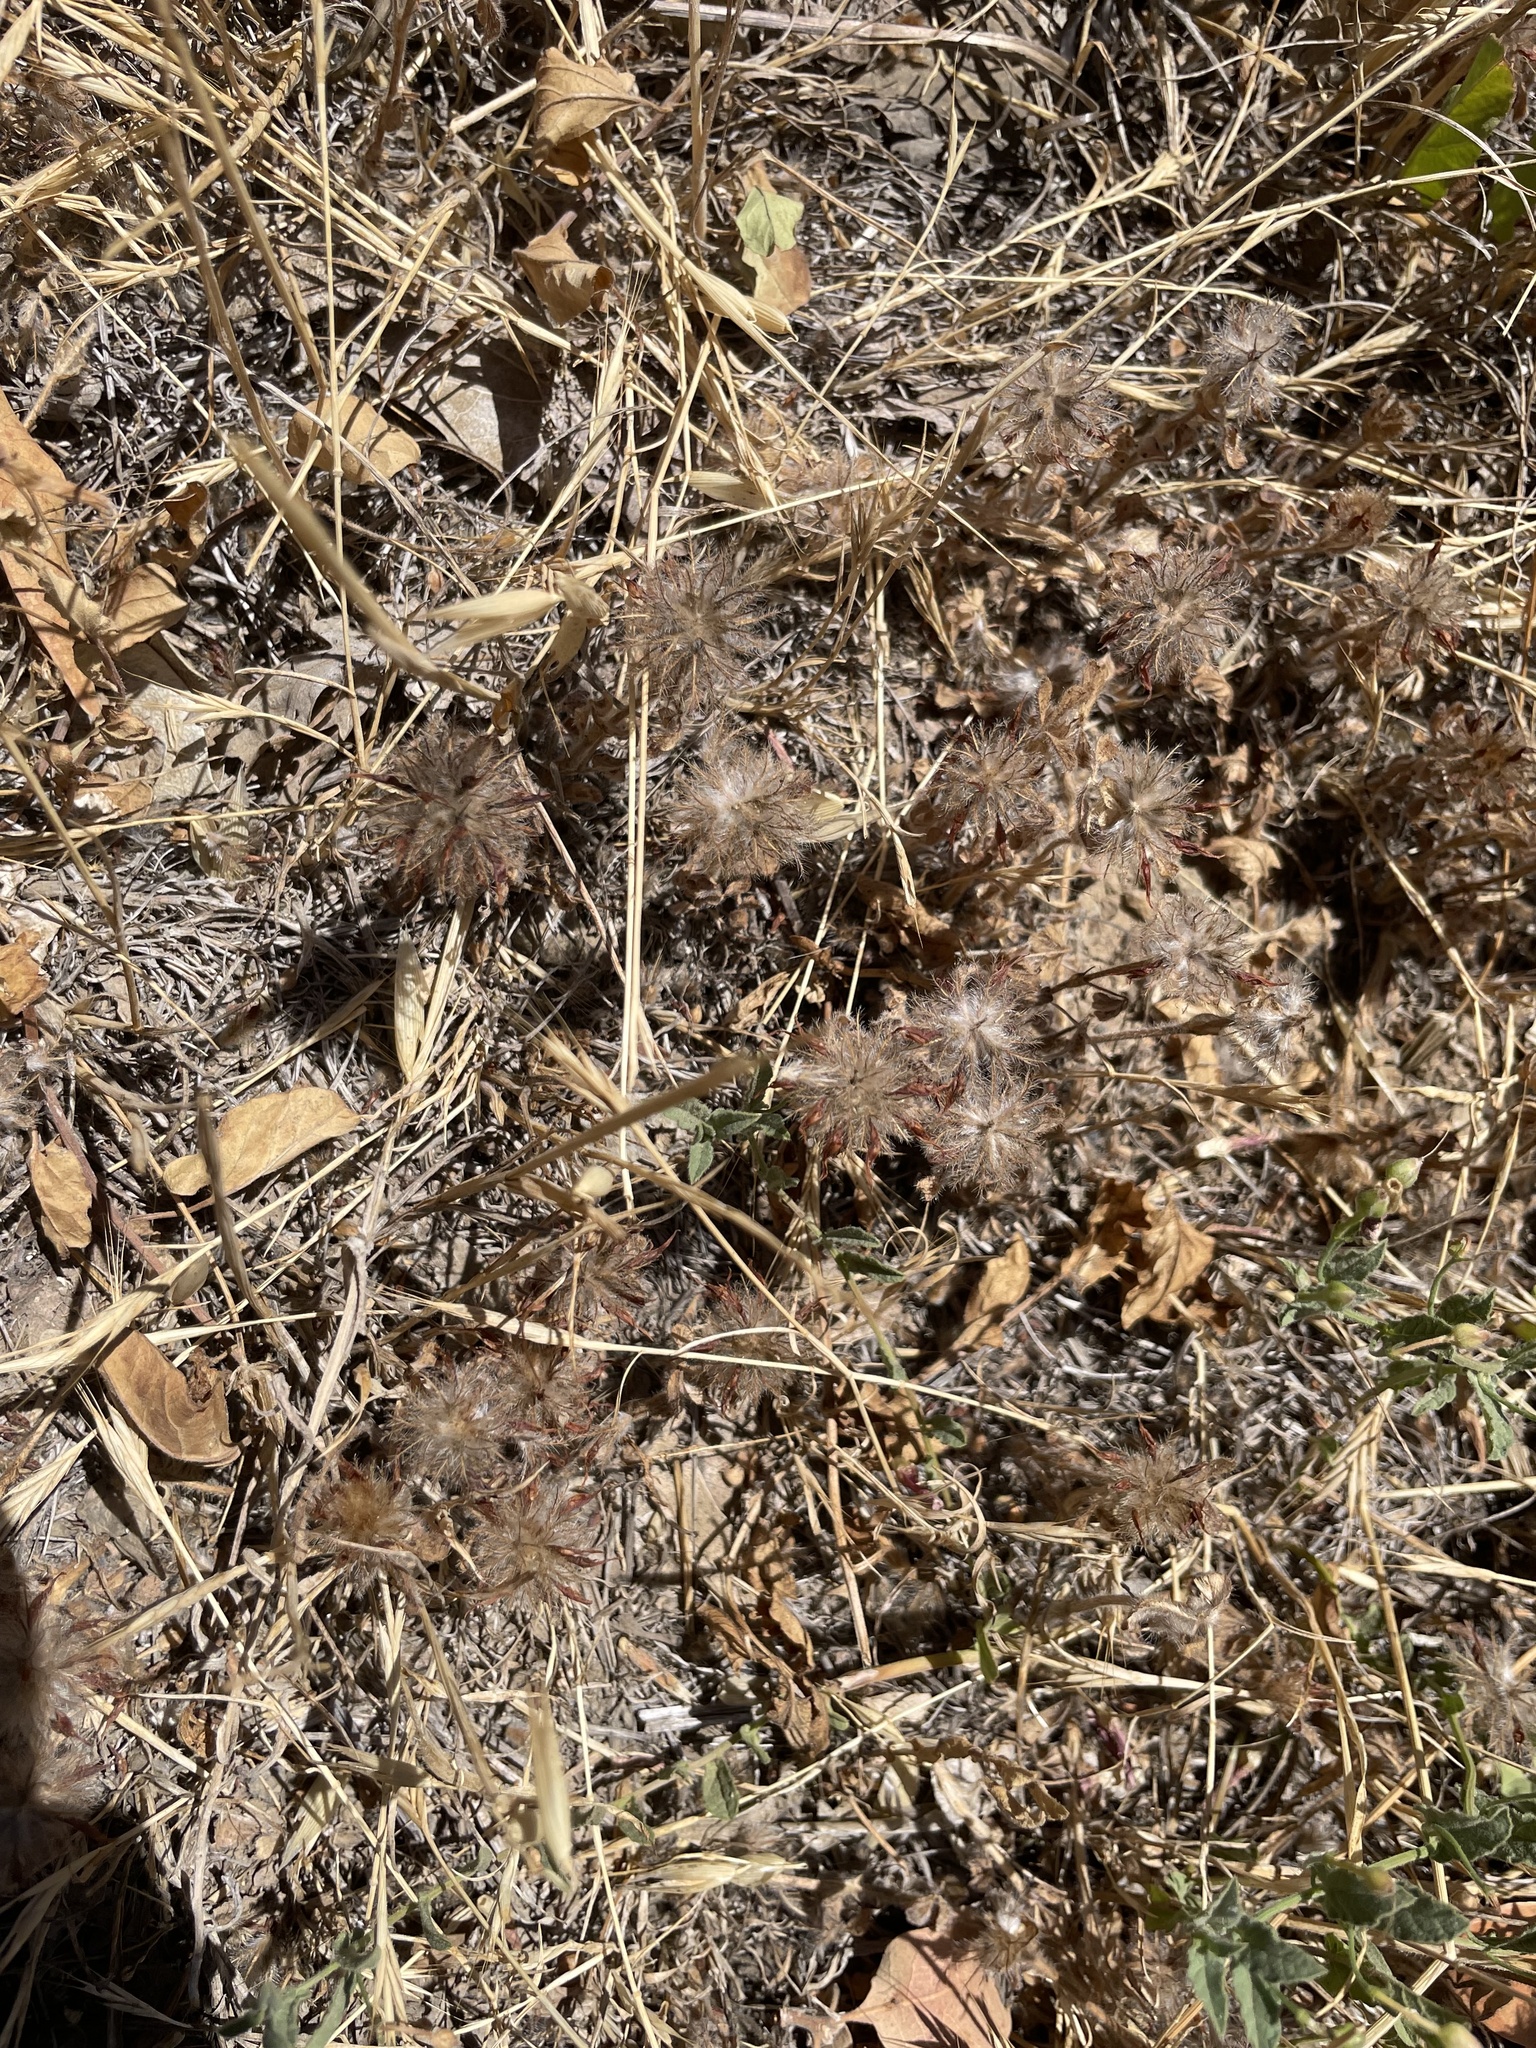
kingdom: Plantae
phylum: Tracheophyta
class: Magnoliopsida
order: Fabales
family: Fabaceae
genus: Trifolium
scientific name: Trifolium hirtum
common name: Rose clover
